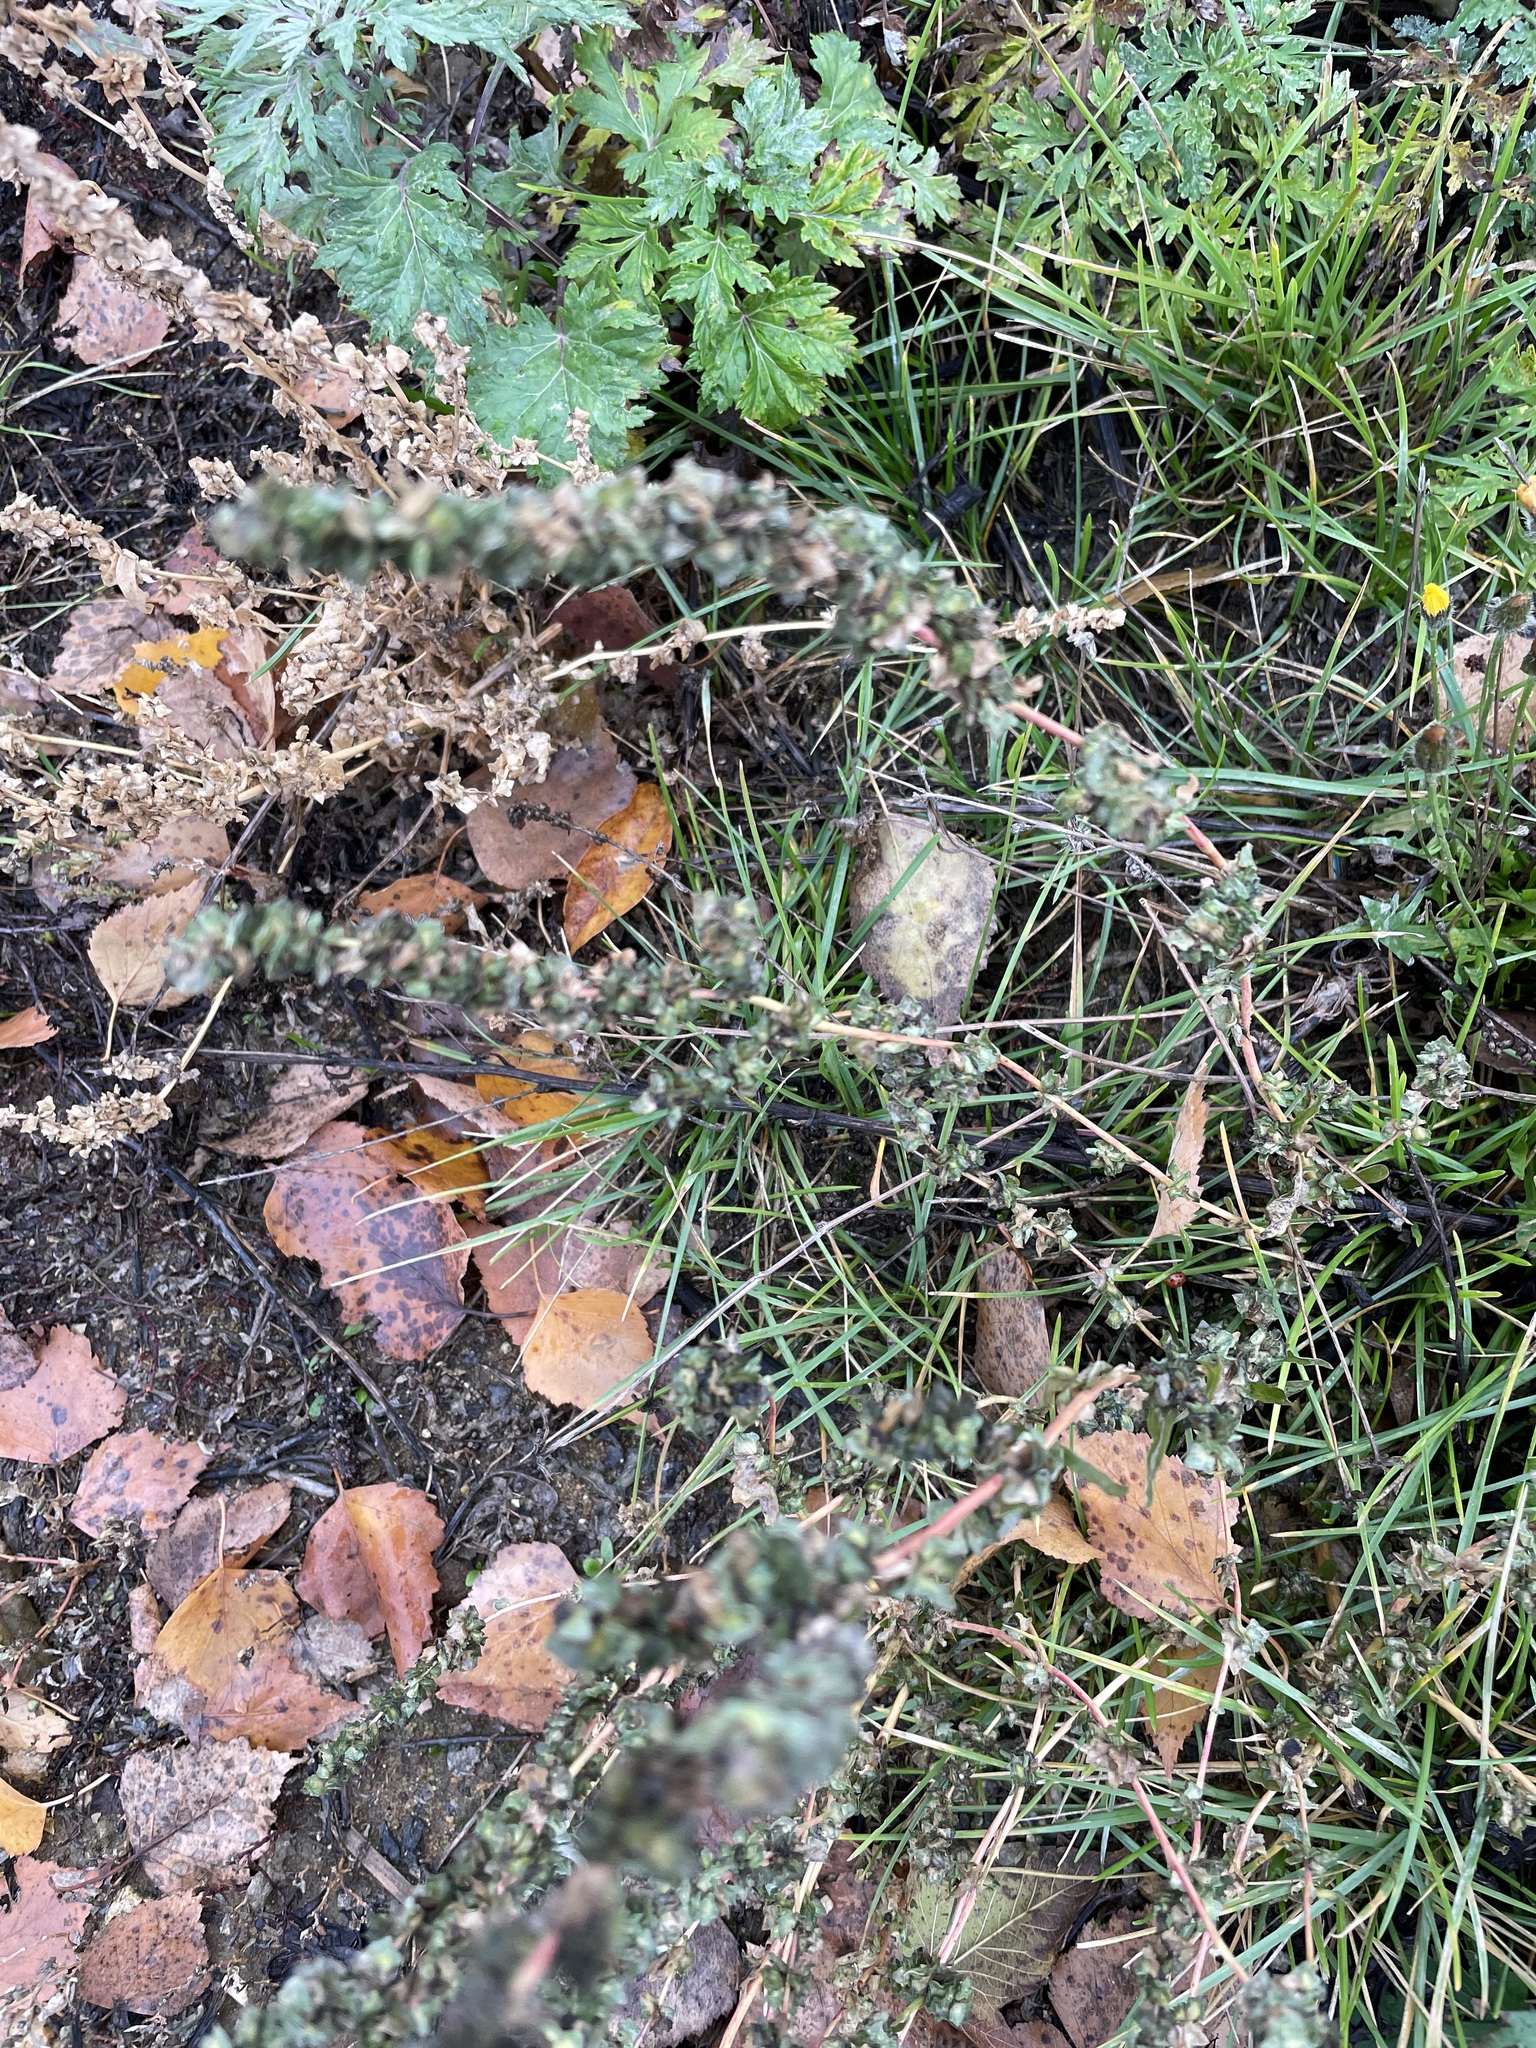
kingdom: Plantae
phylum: Tracheophyta
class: Magnoliopsida
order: Caryophyllales
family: Amaranthaceae
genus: Atriplex
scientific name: Atriplex tatarica
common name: Tatarian orache
